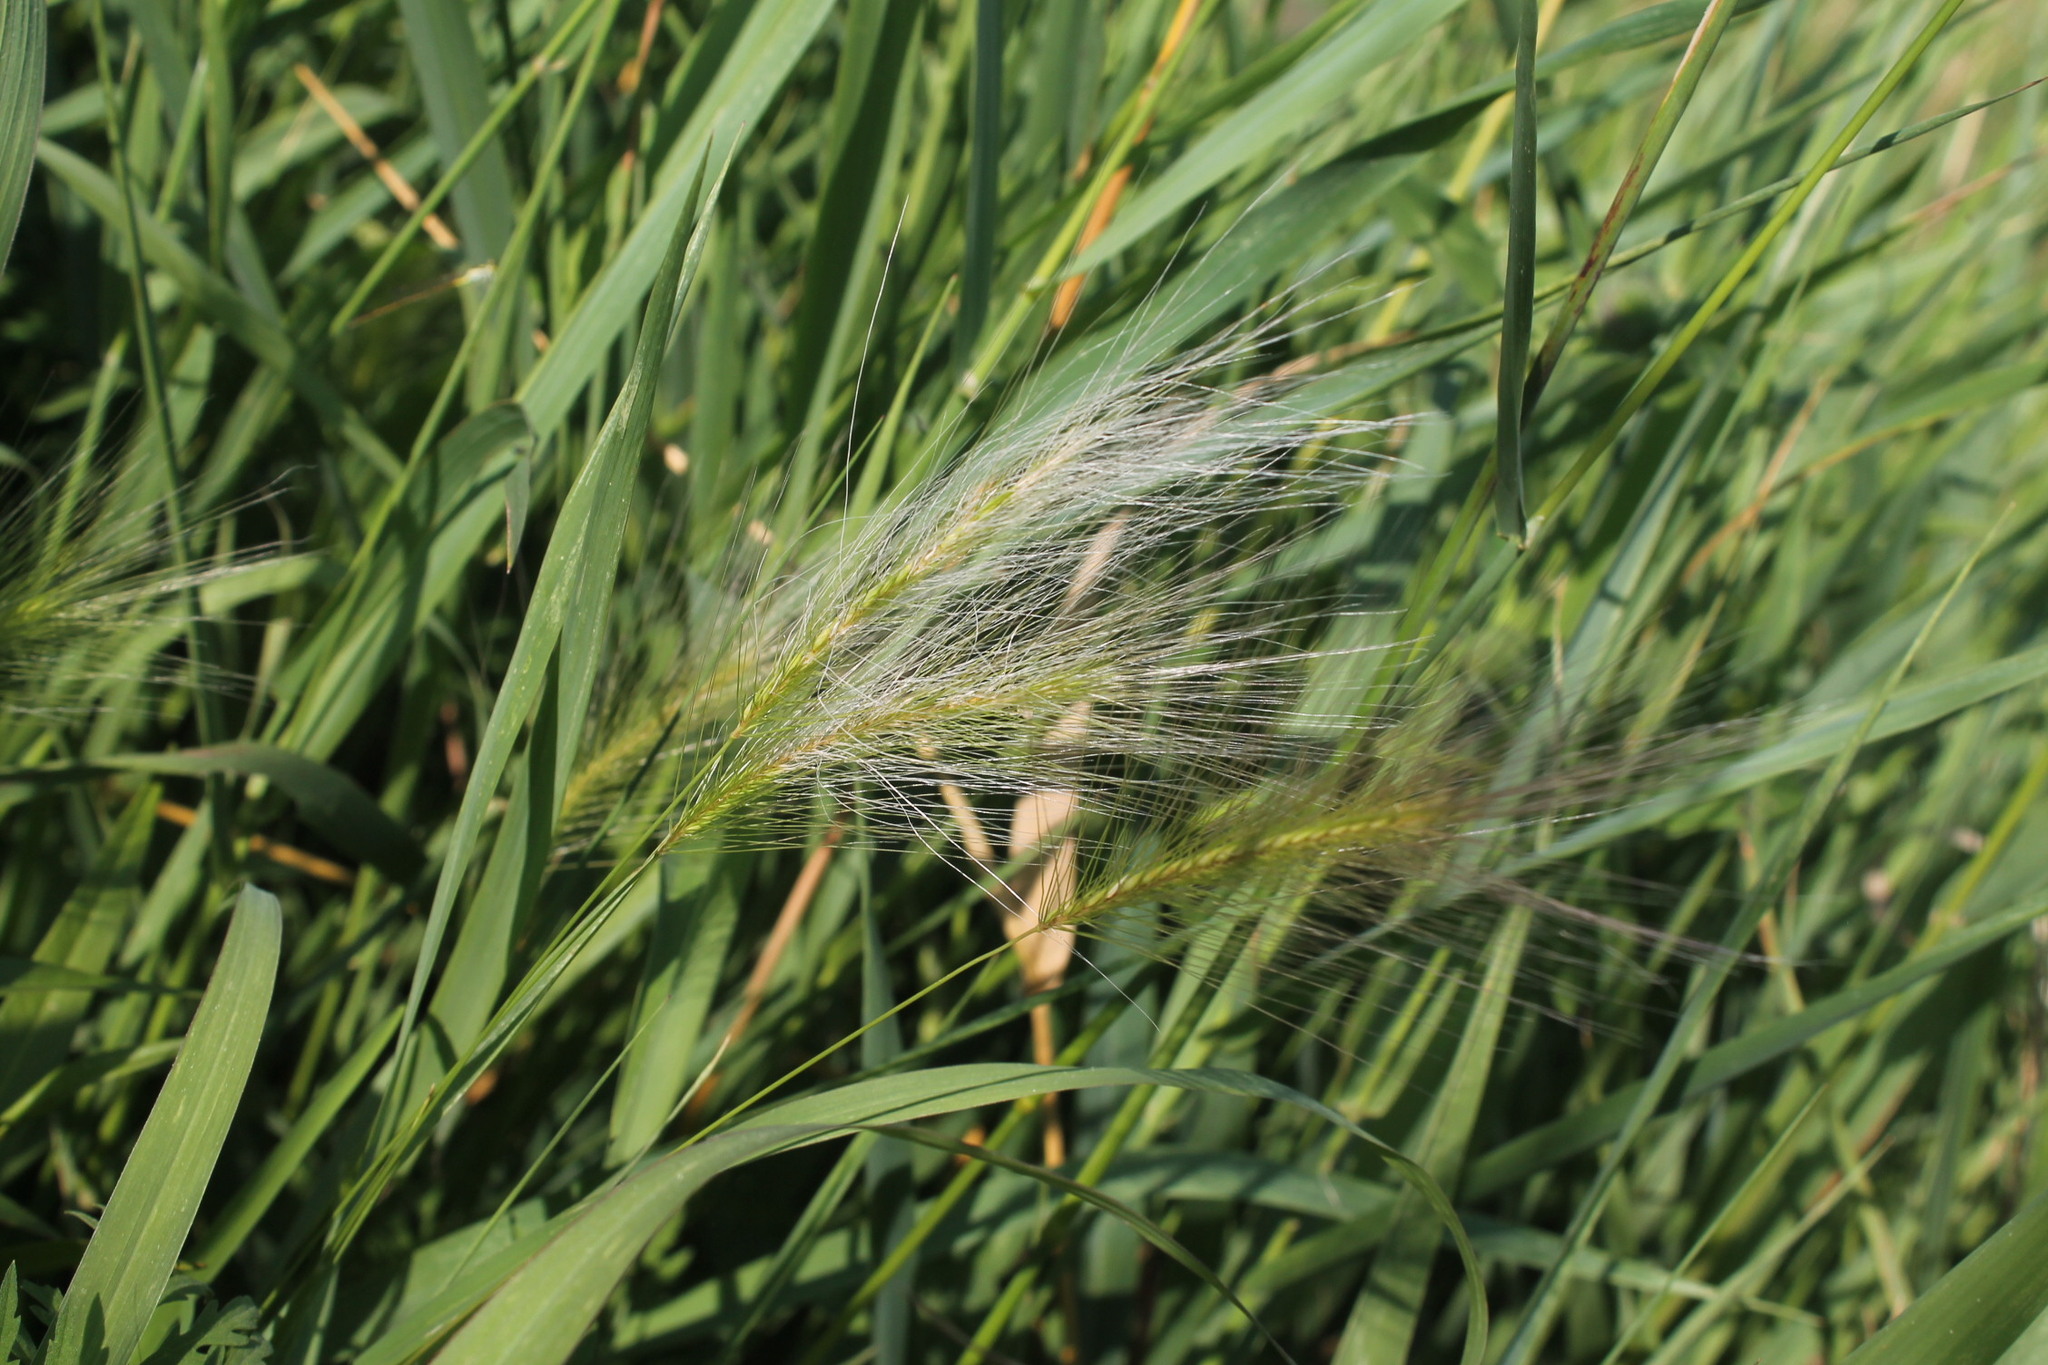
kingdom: Plantae
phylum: Tracheophyta
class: Liliopsida
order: Poales
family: Poaceae
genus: Hordeum
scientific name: Hordeum jubatum
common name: Foxtail barley
